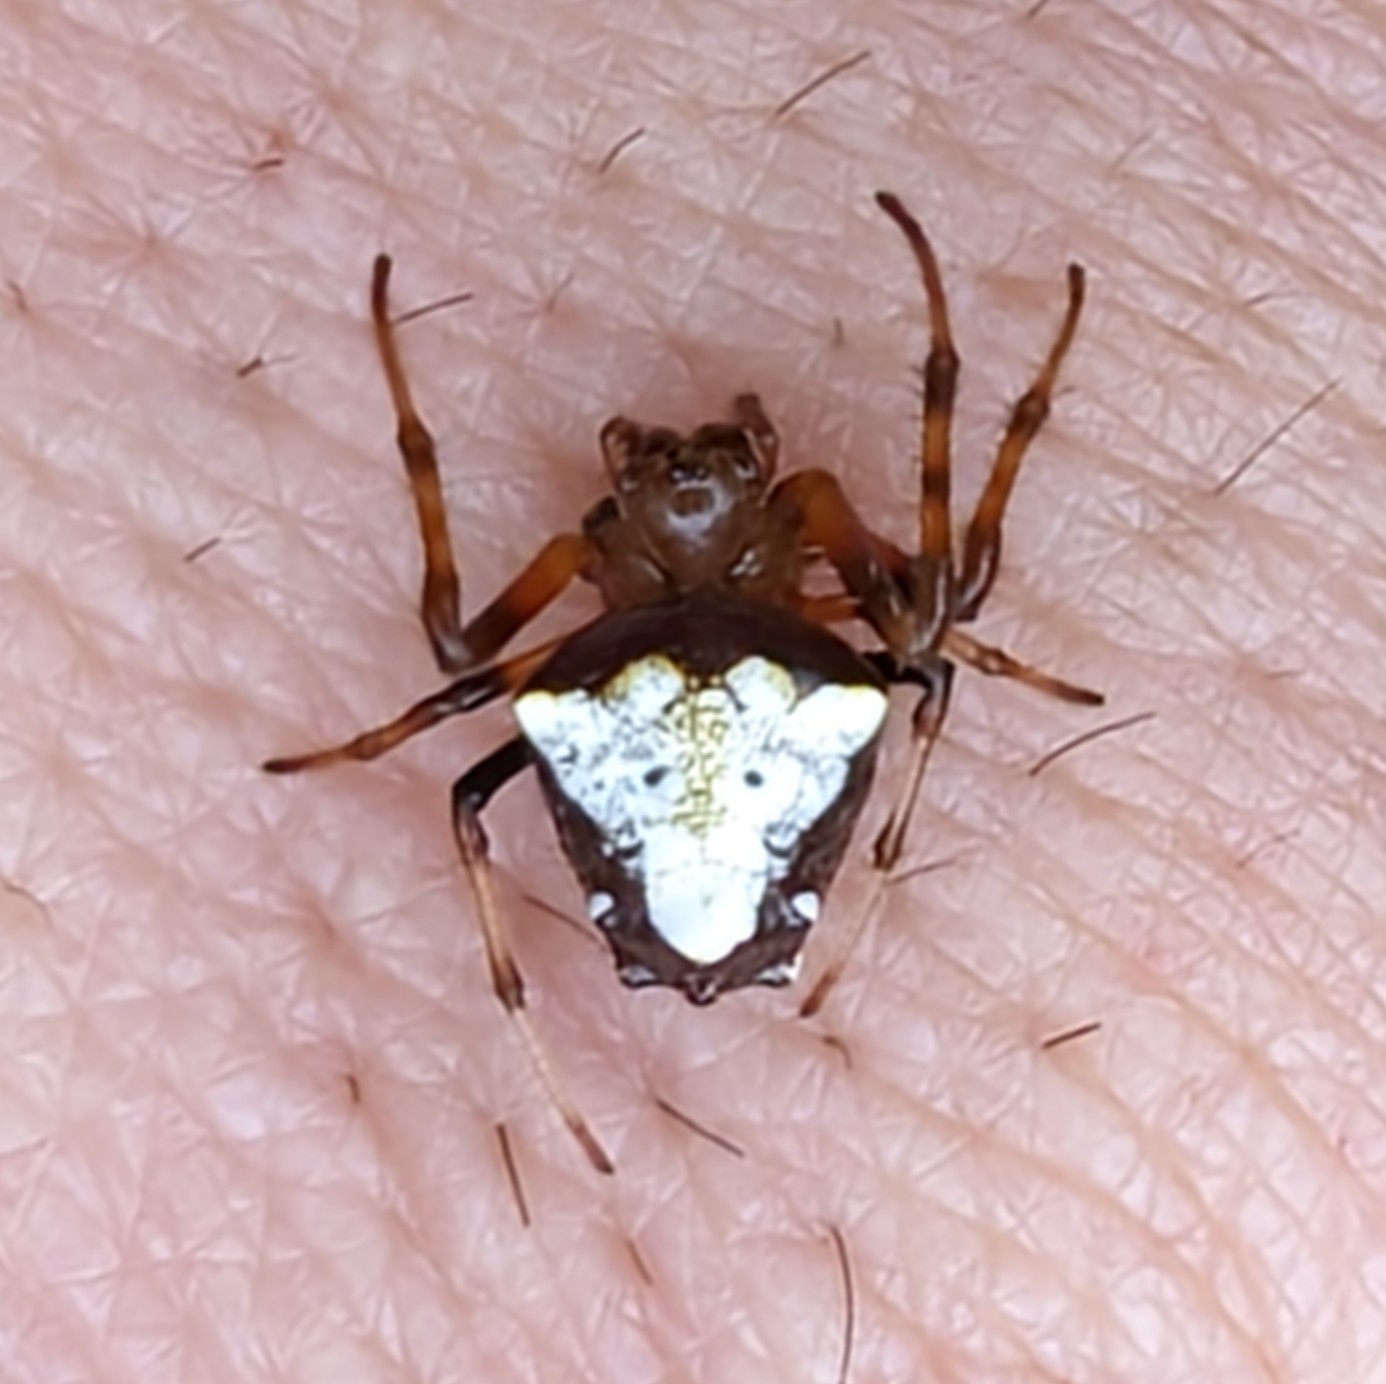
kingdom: Animalia
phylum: Arthropoda
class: Arachnida
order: Araneae
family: Araneidae
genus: Verrucosa
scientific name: Verrucosa arenata
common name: Orb weavers
